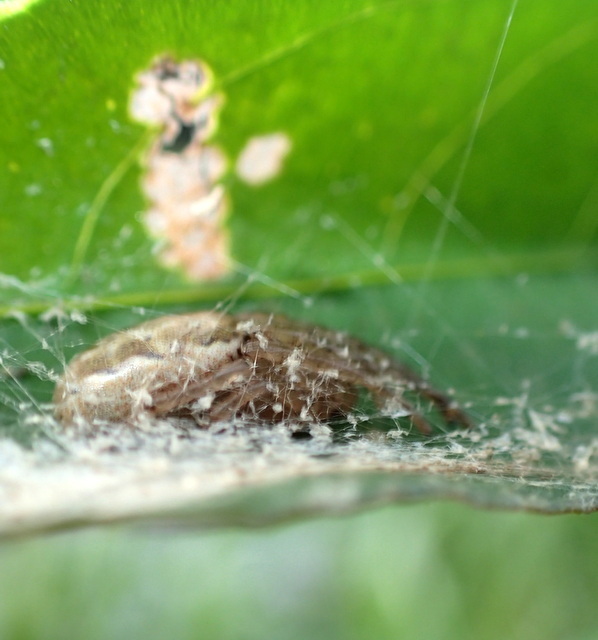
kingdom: Animalia
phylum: Arthropoda
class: Arachnida
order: Araneae
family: Araneidae
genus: Larinioides
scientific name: Larinioides cornutus
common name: Furrow orbweaver
